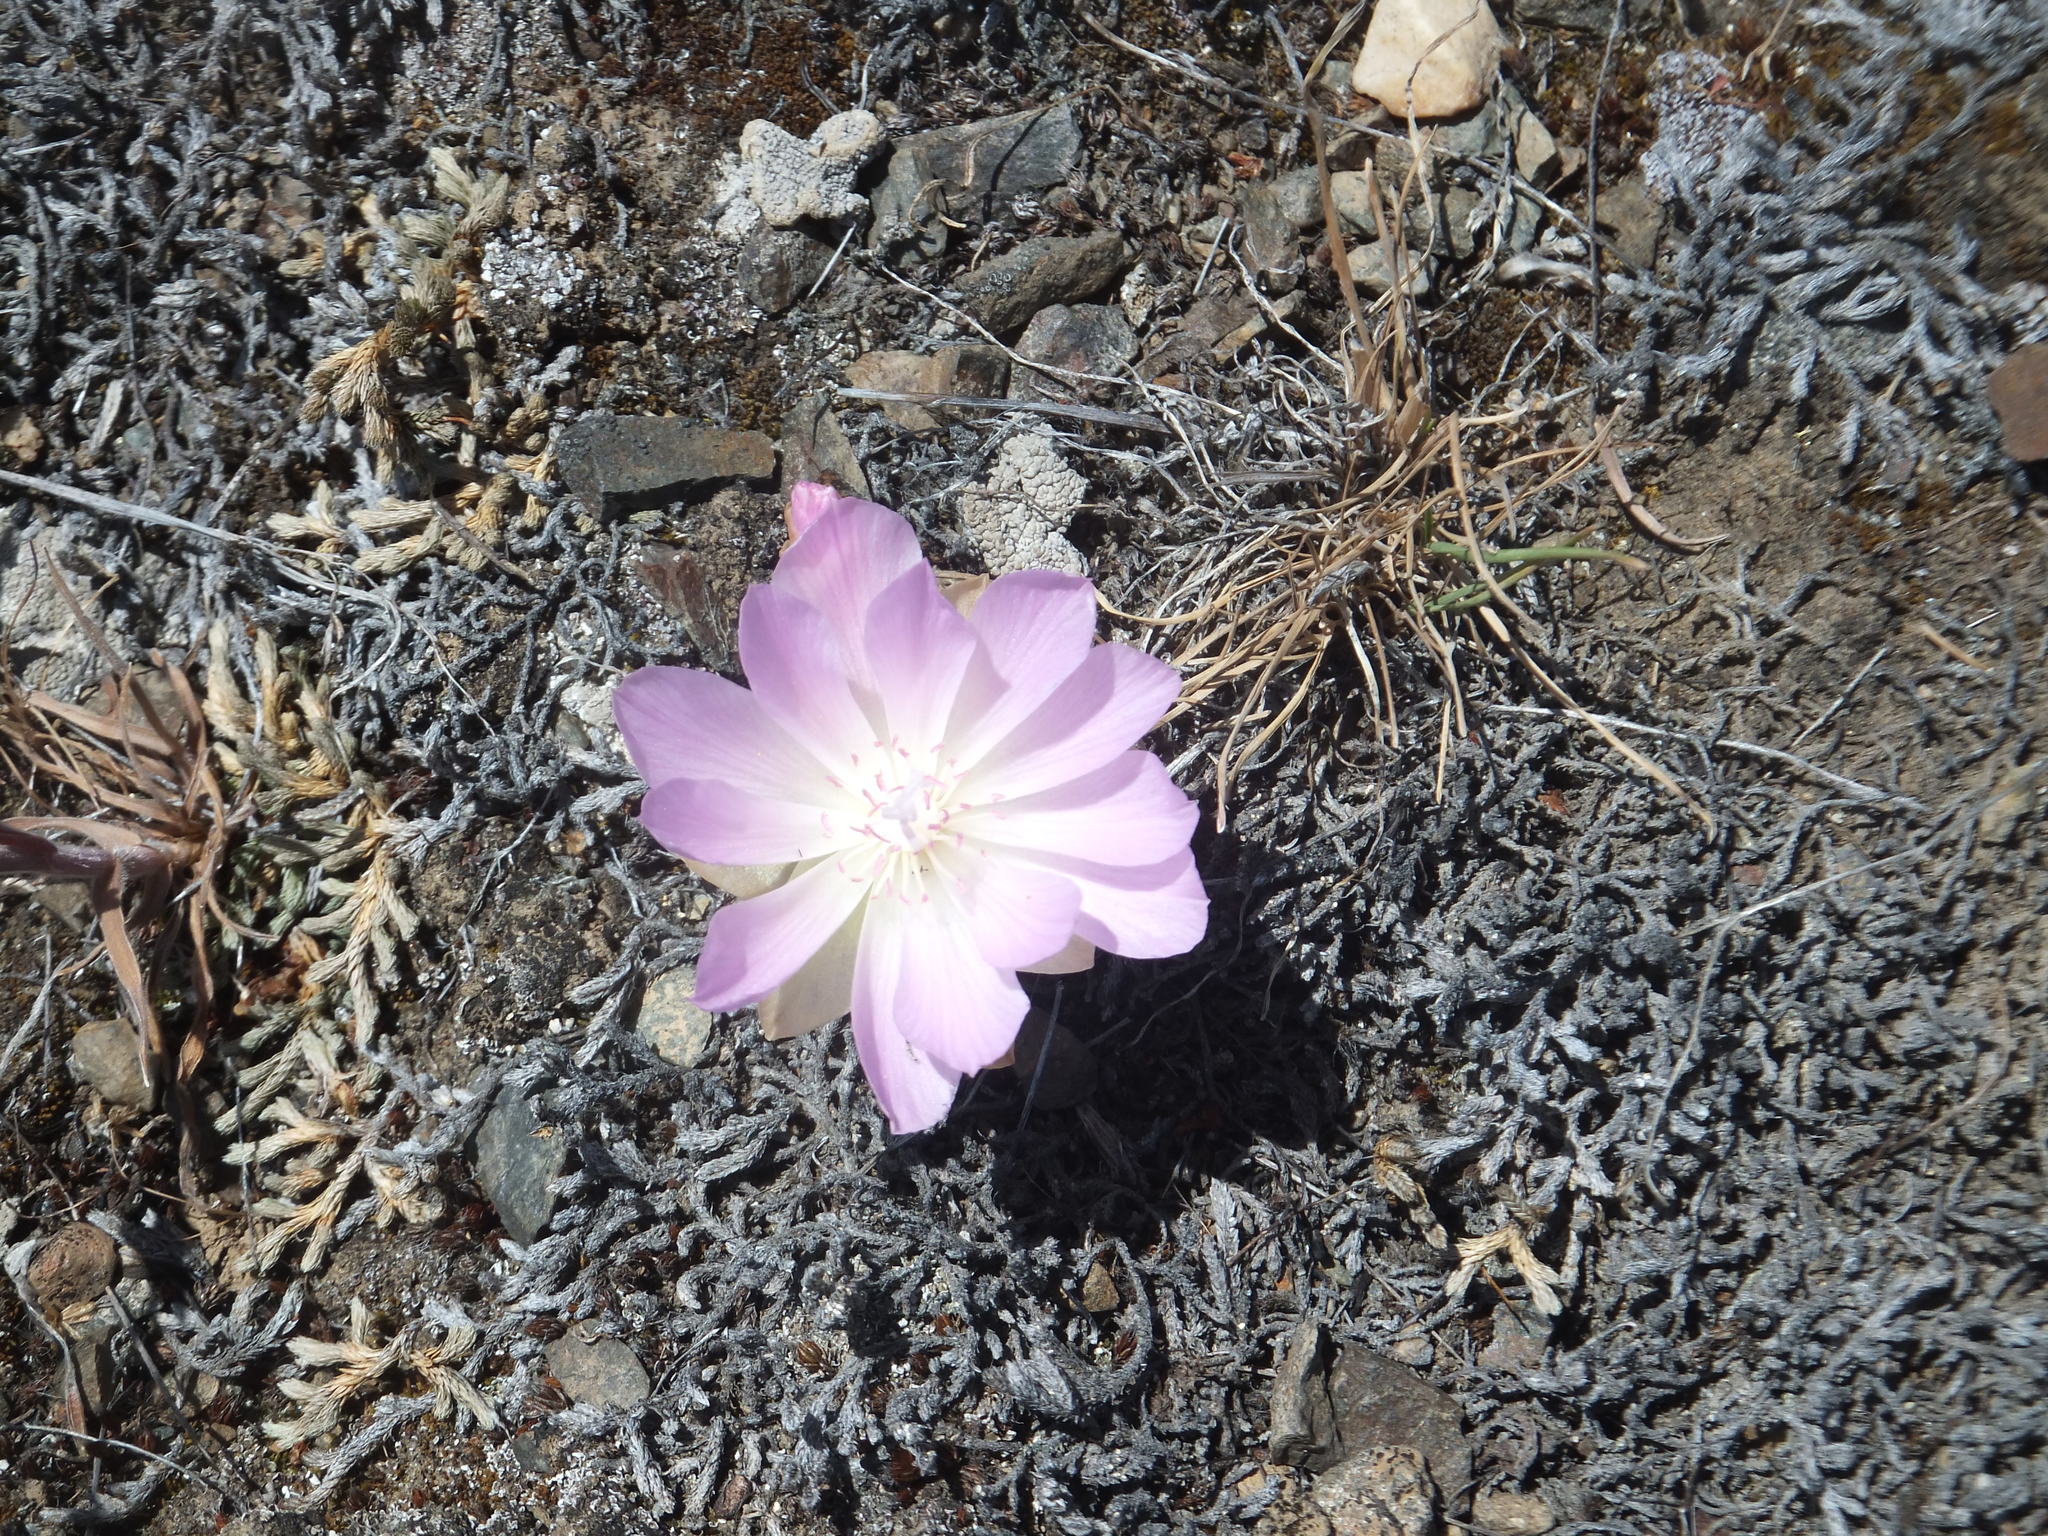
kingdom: Plantae
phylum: Tracheophyta
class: Magnoliopsida
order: Caryophyllales
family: Montiaceae
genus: Lewisia
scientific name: Lewisia rediviva
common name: Bitter-root
